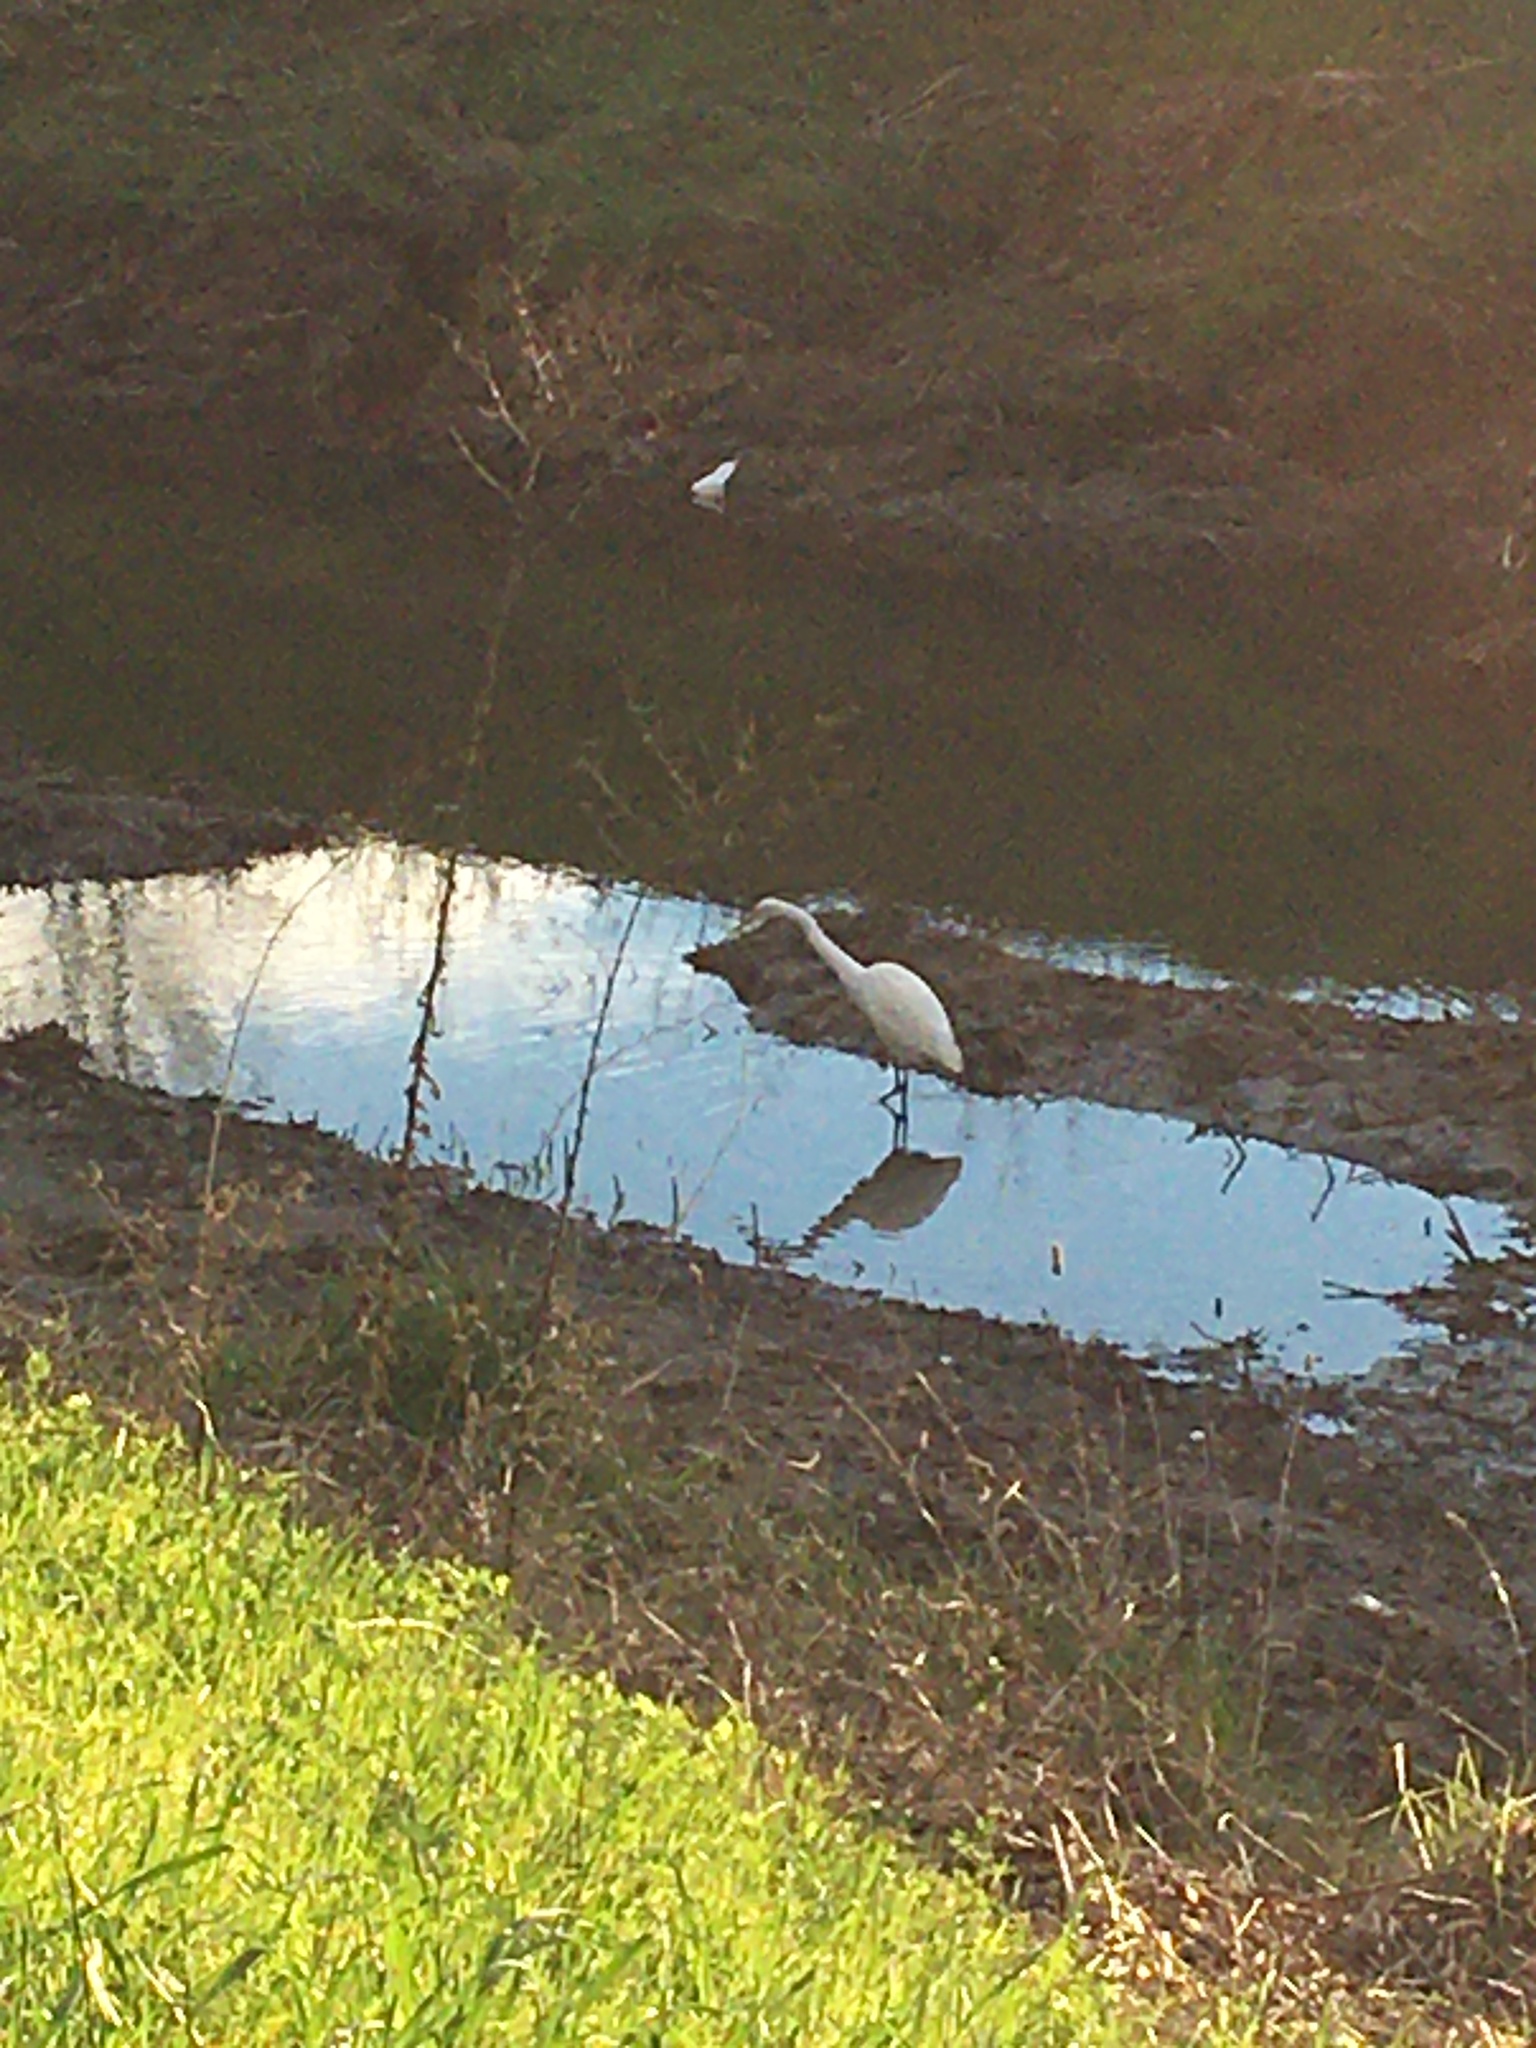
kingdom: Animalia
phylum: Chordata
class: Aves
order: Pelecaniformes
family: Ardeidae
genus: Ardea
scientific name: Ardea alba
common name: Great egret
